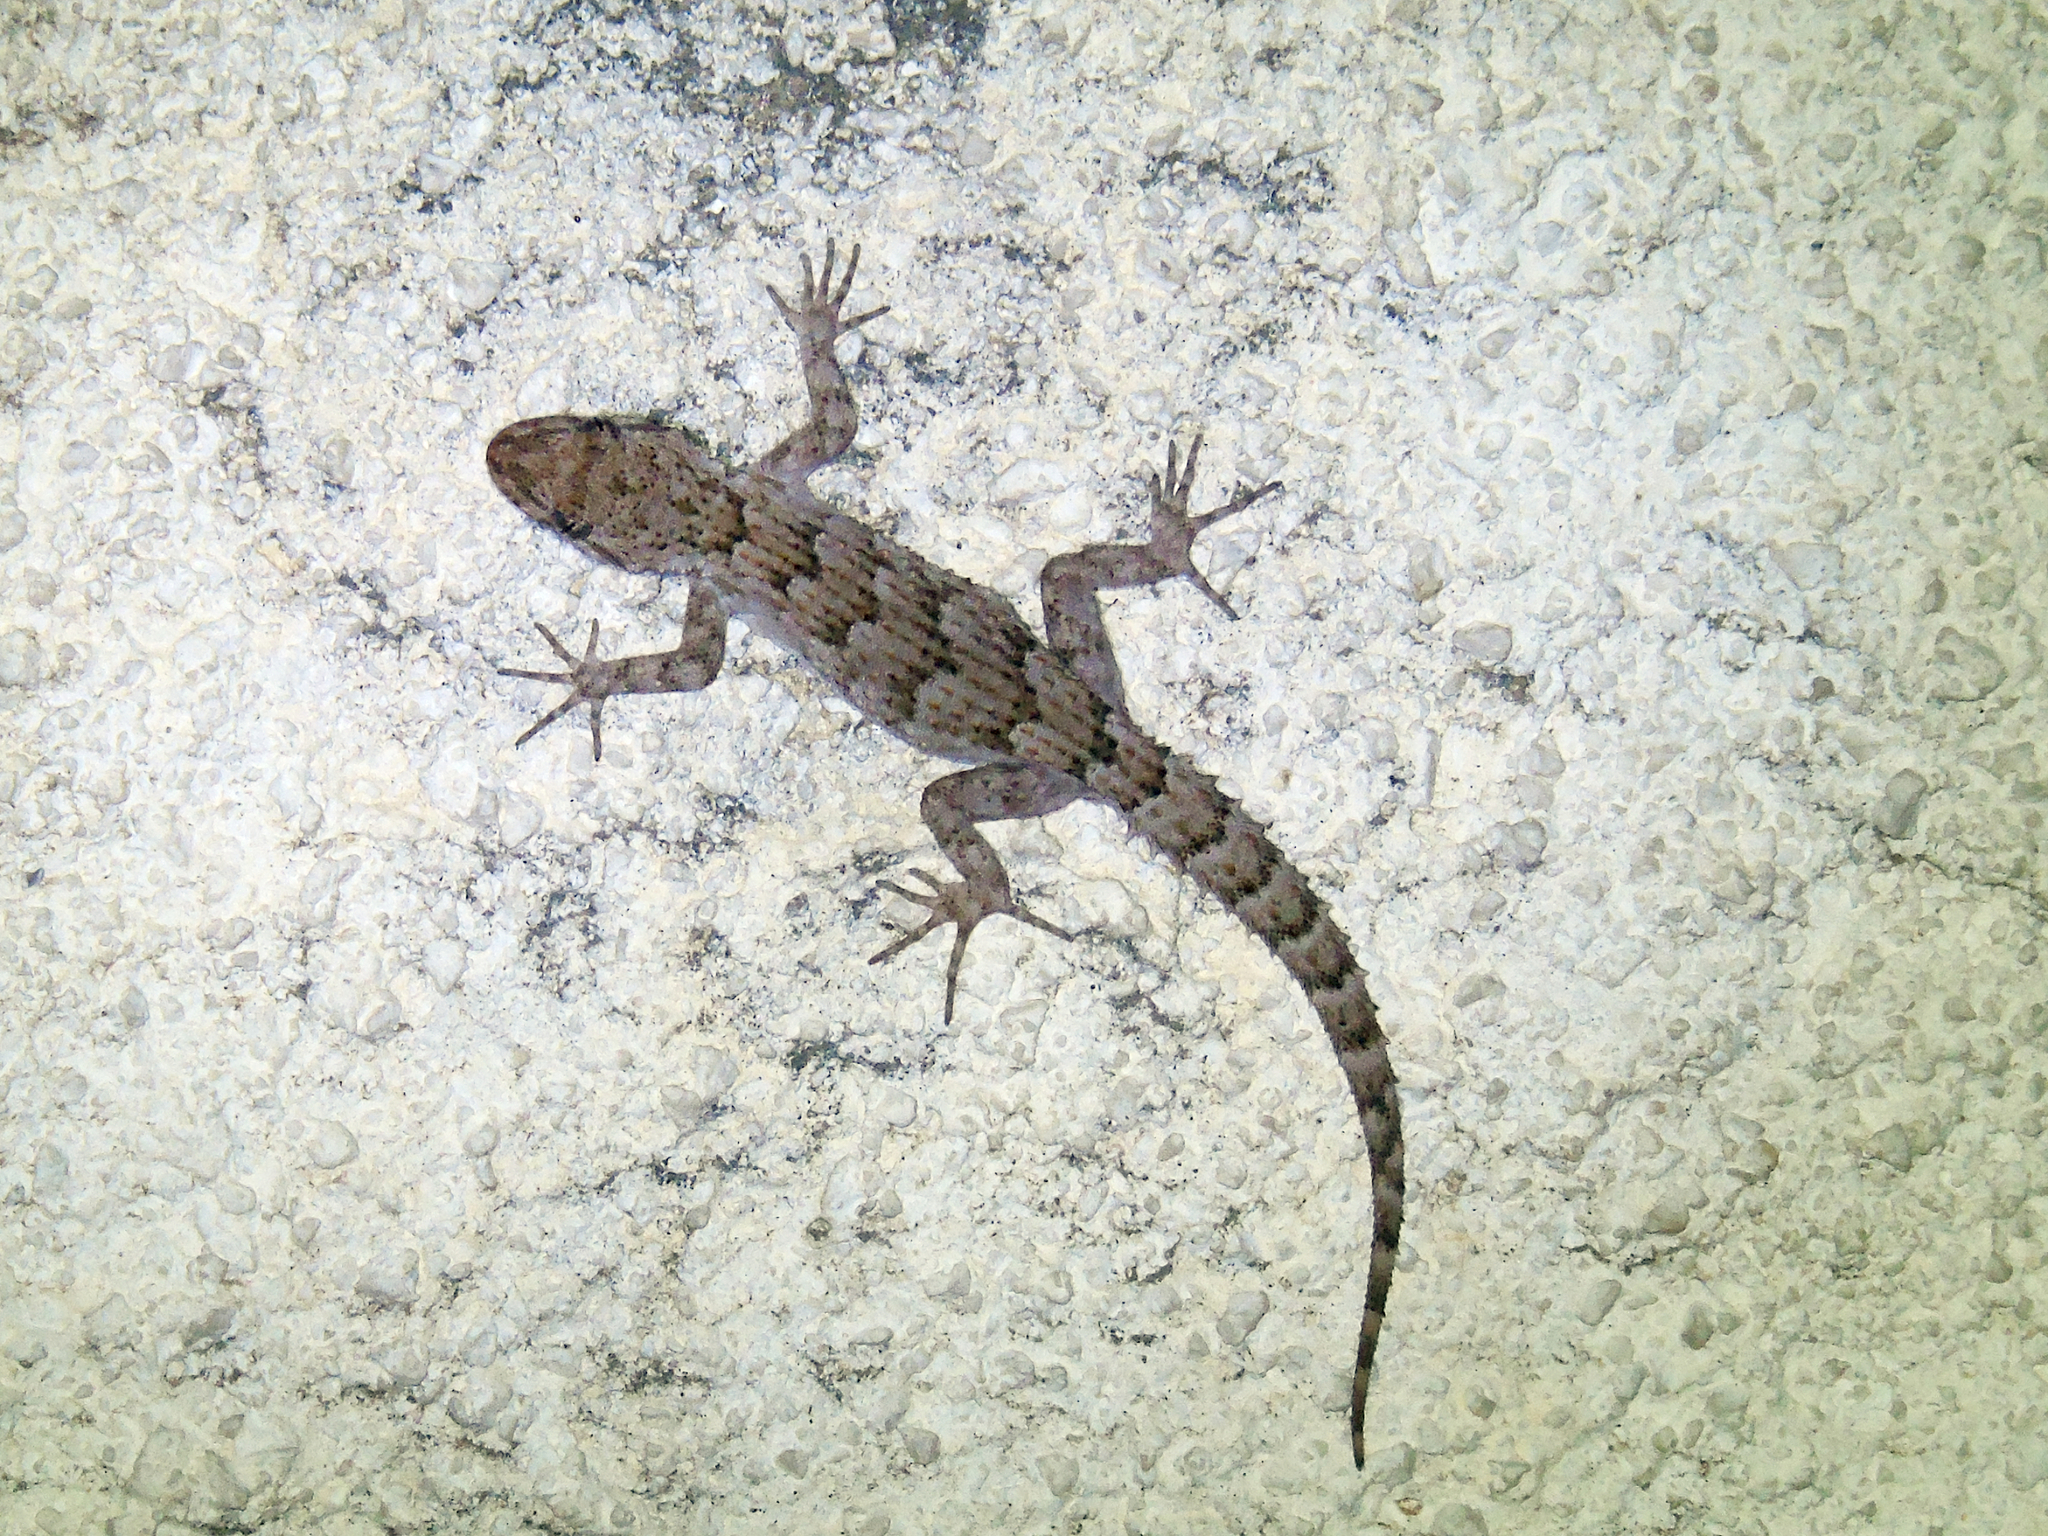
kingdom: Animalia
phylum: Chordata
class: Squamata
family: Gekkonidae
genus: Mediodactylus
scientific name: Mediodactylus kotschyi
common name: Kotschy's gecko
